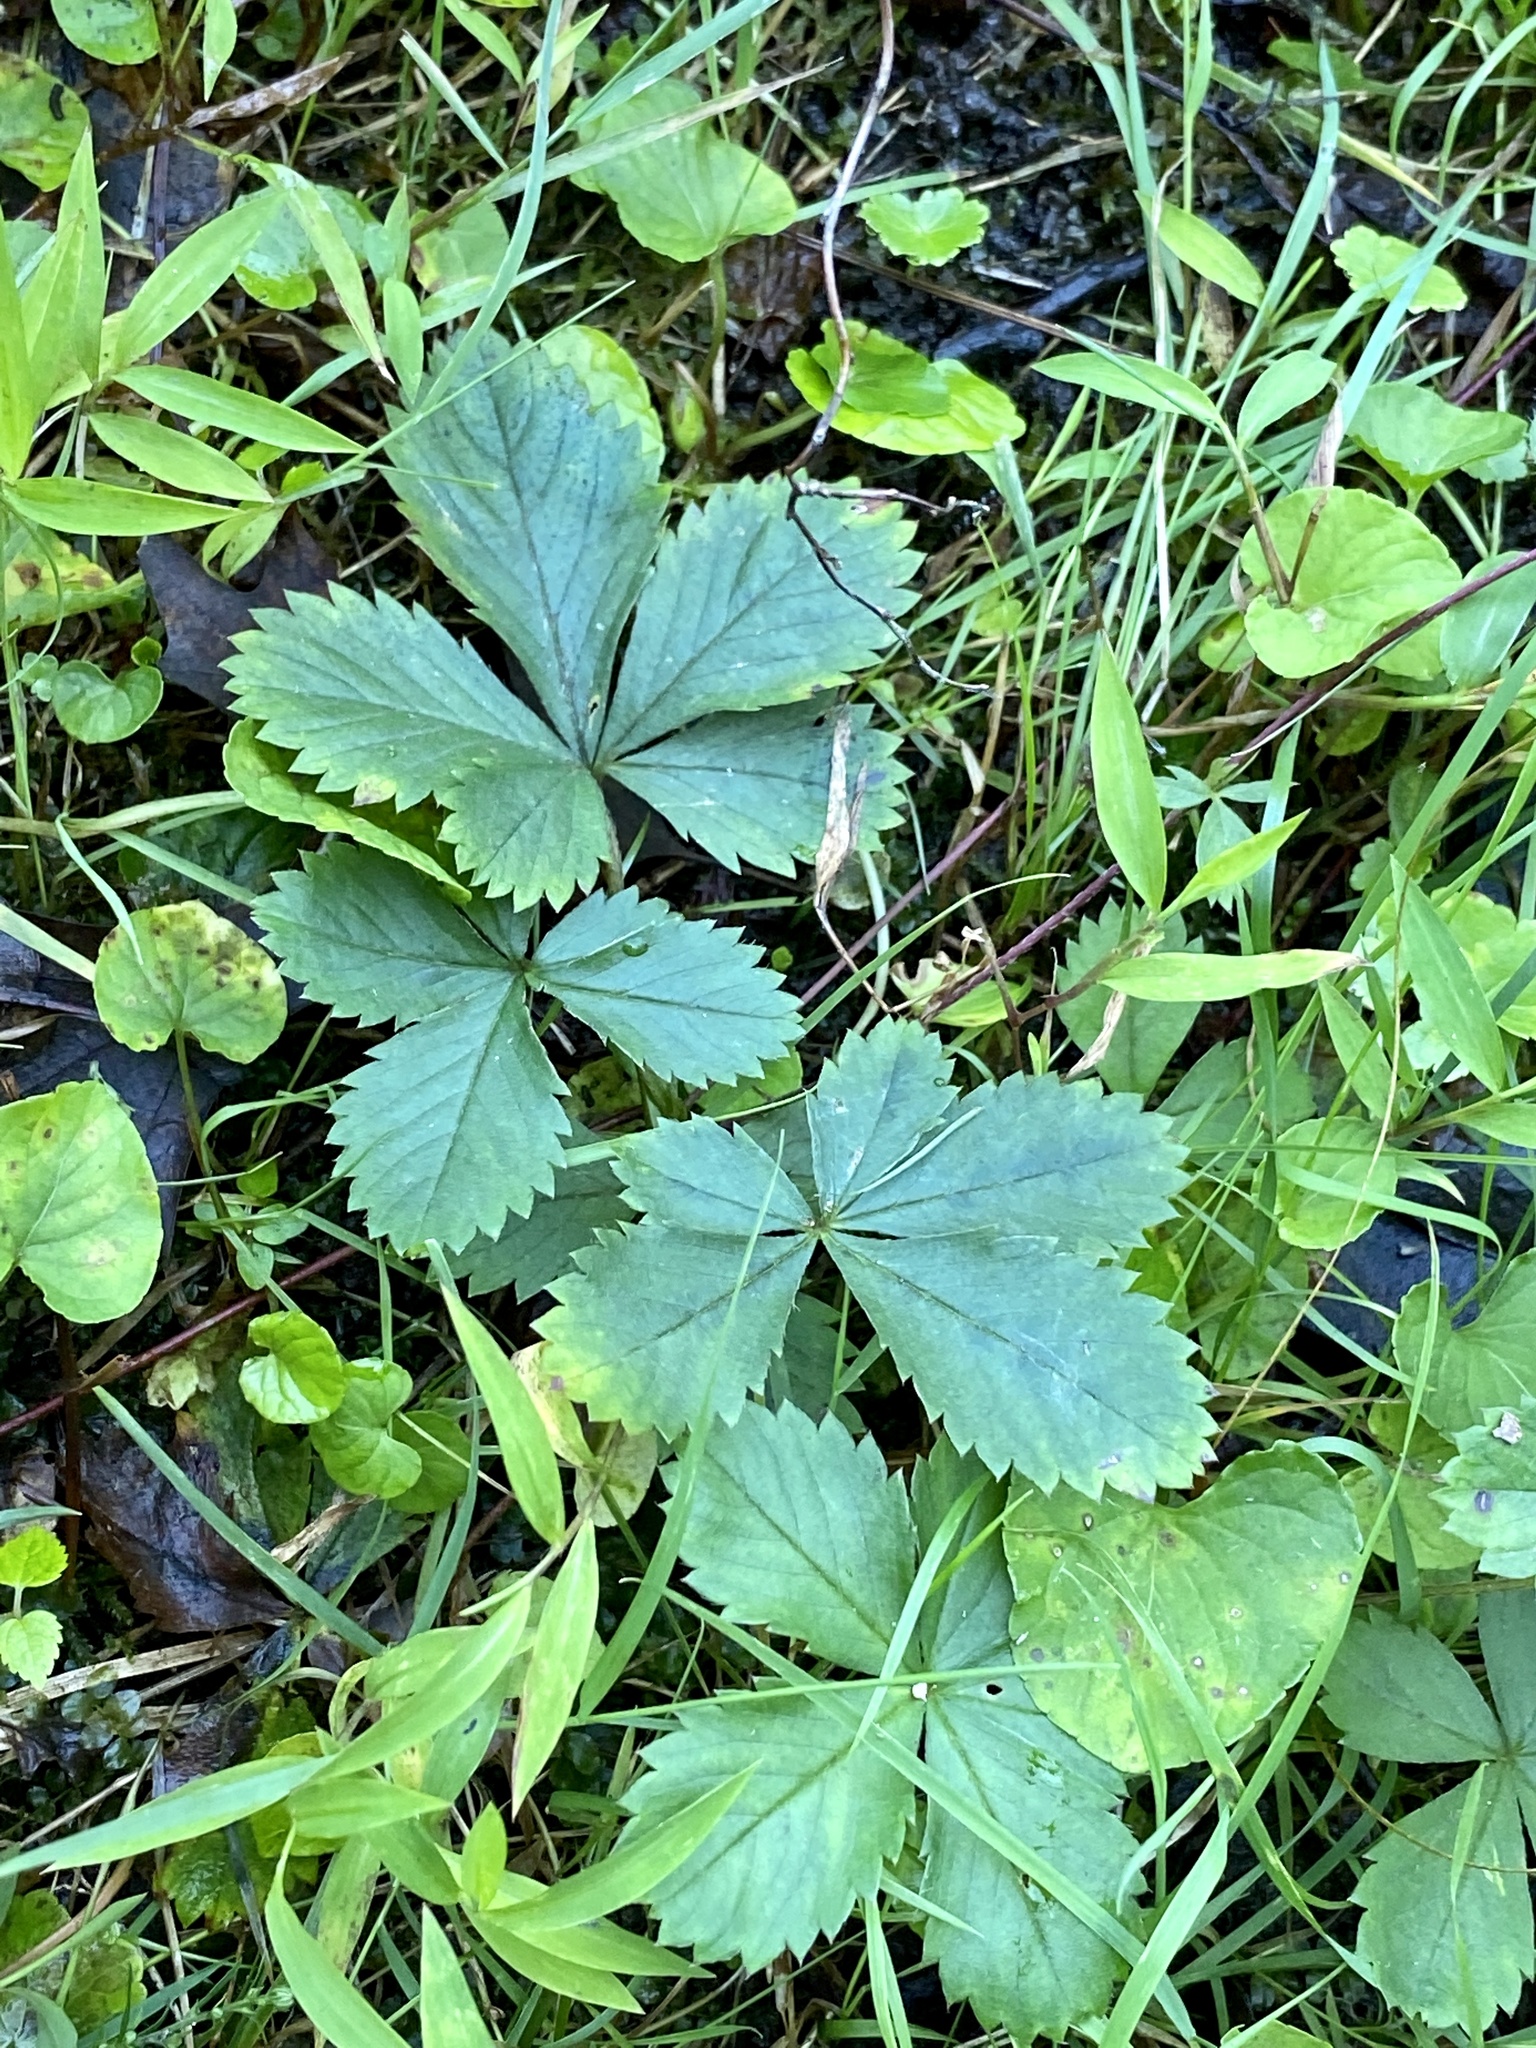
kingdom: Plantae
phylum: Tracheophyta
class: Magnoliopsida
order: Rosales
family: Rosaceae
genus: Potentilla
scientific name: Potentilla canadensis
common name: Canada cinquefoil
